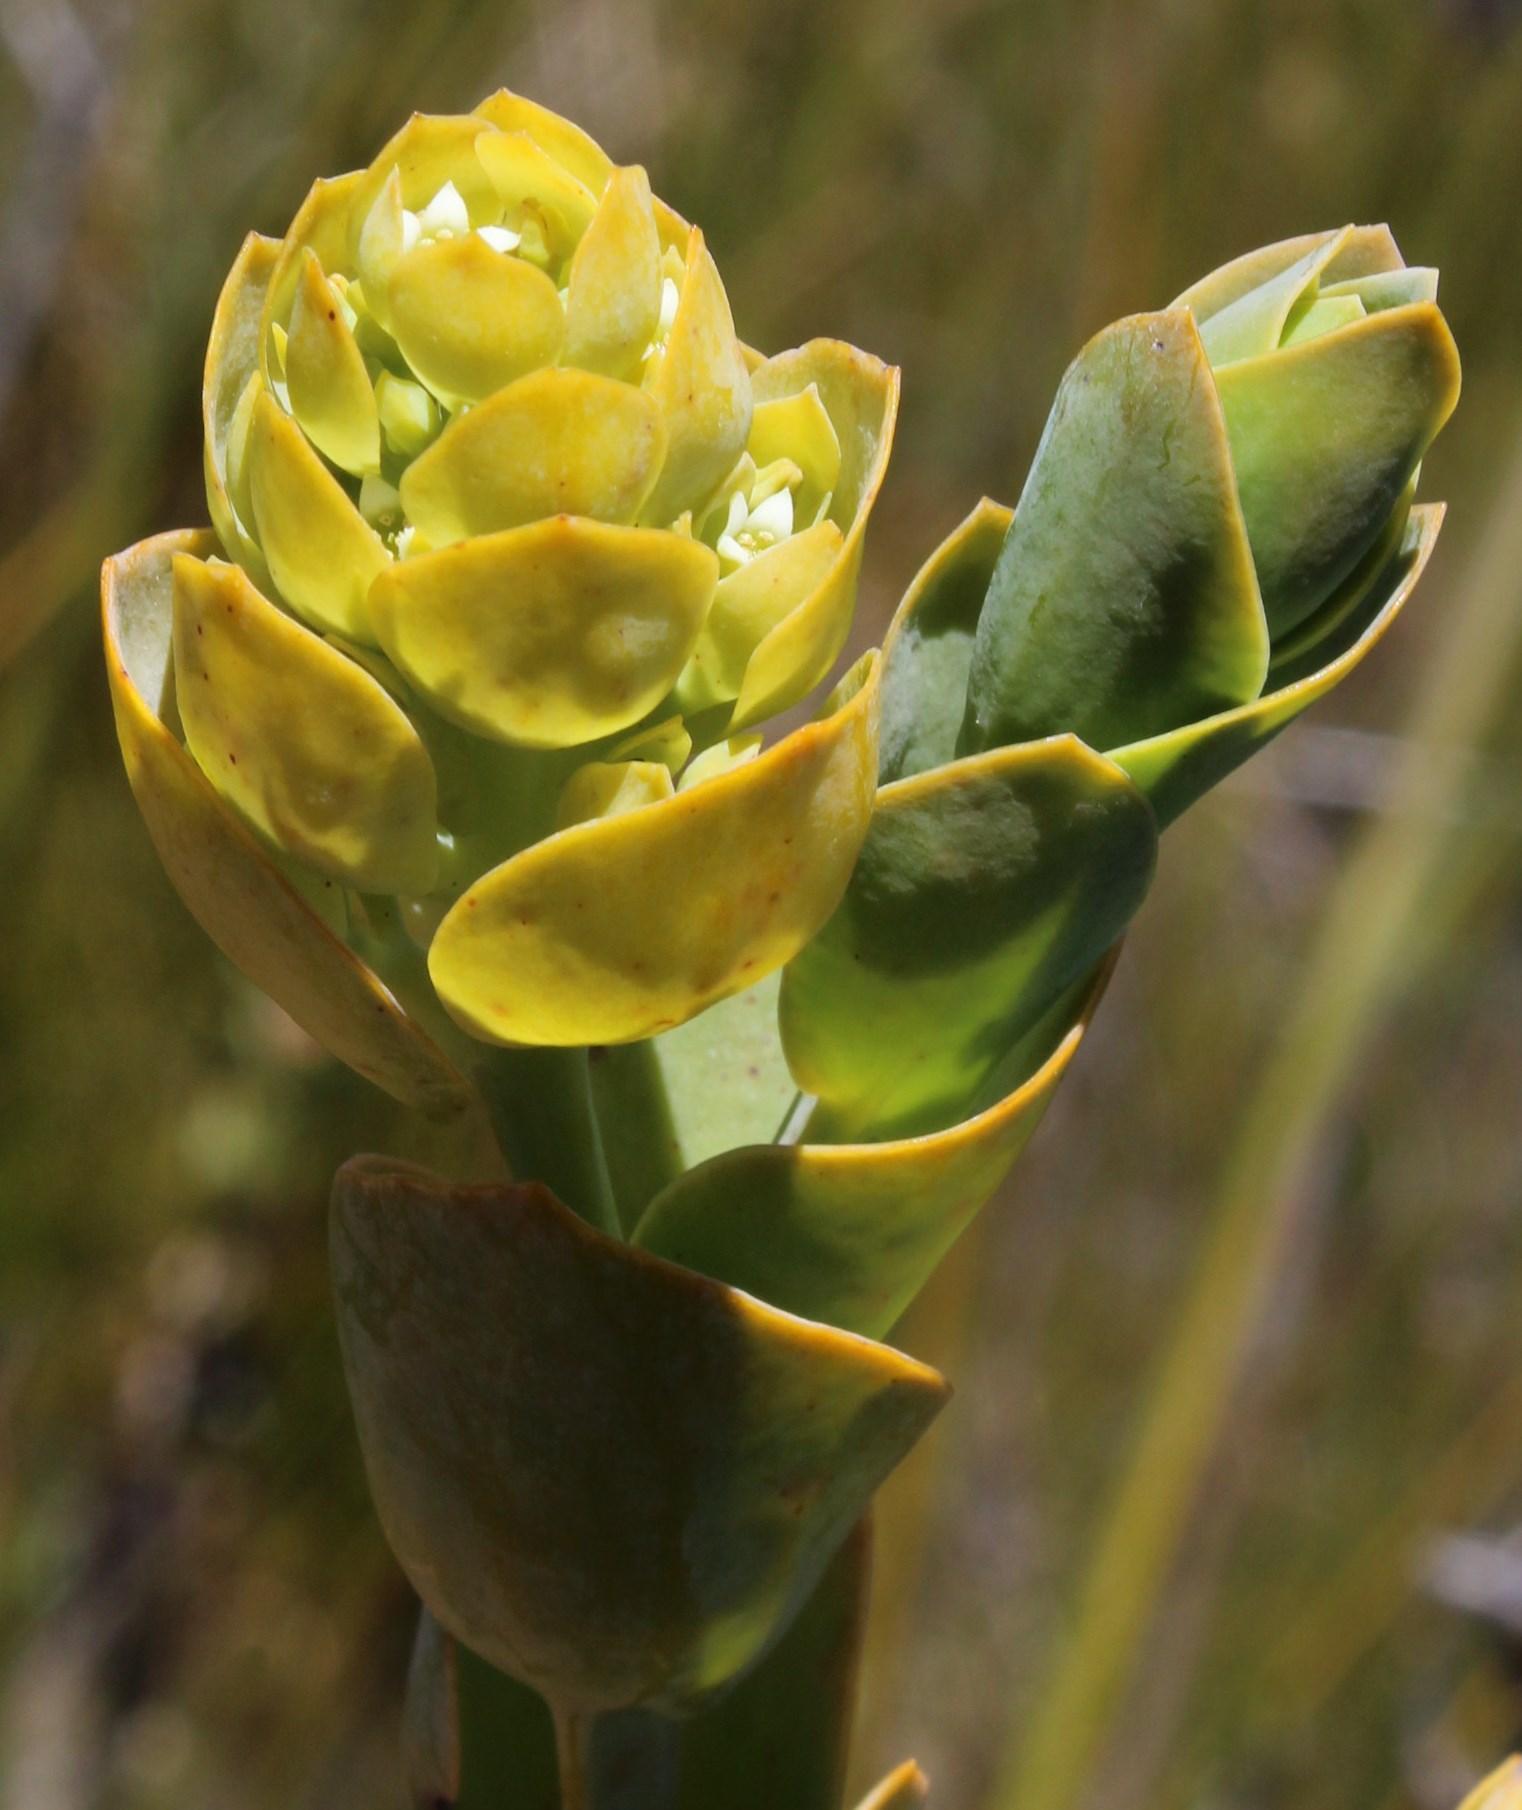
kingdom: Plantae
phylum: Tracheophyta
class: Magnoliopsida
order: Santalales
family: Thesiaceae
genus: Thesium
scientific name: Thesium euphorbioides
